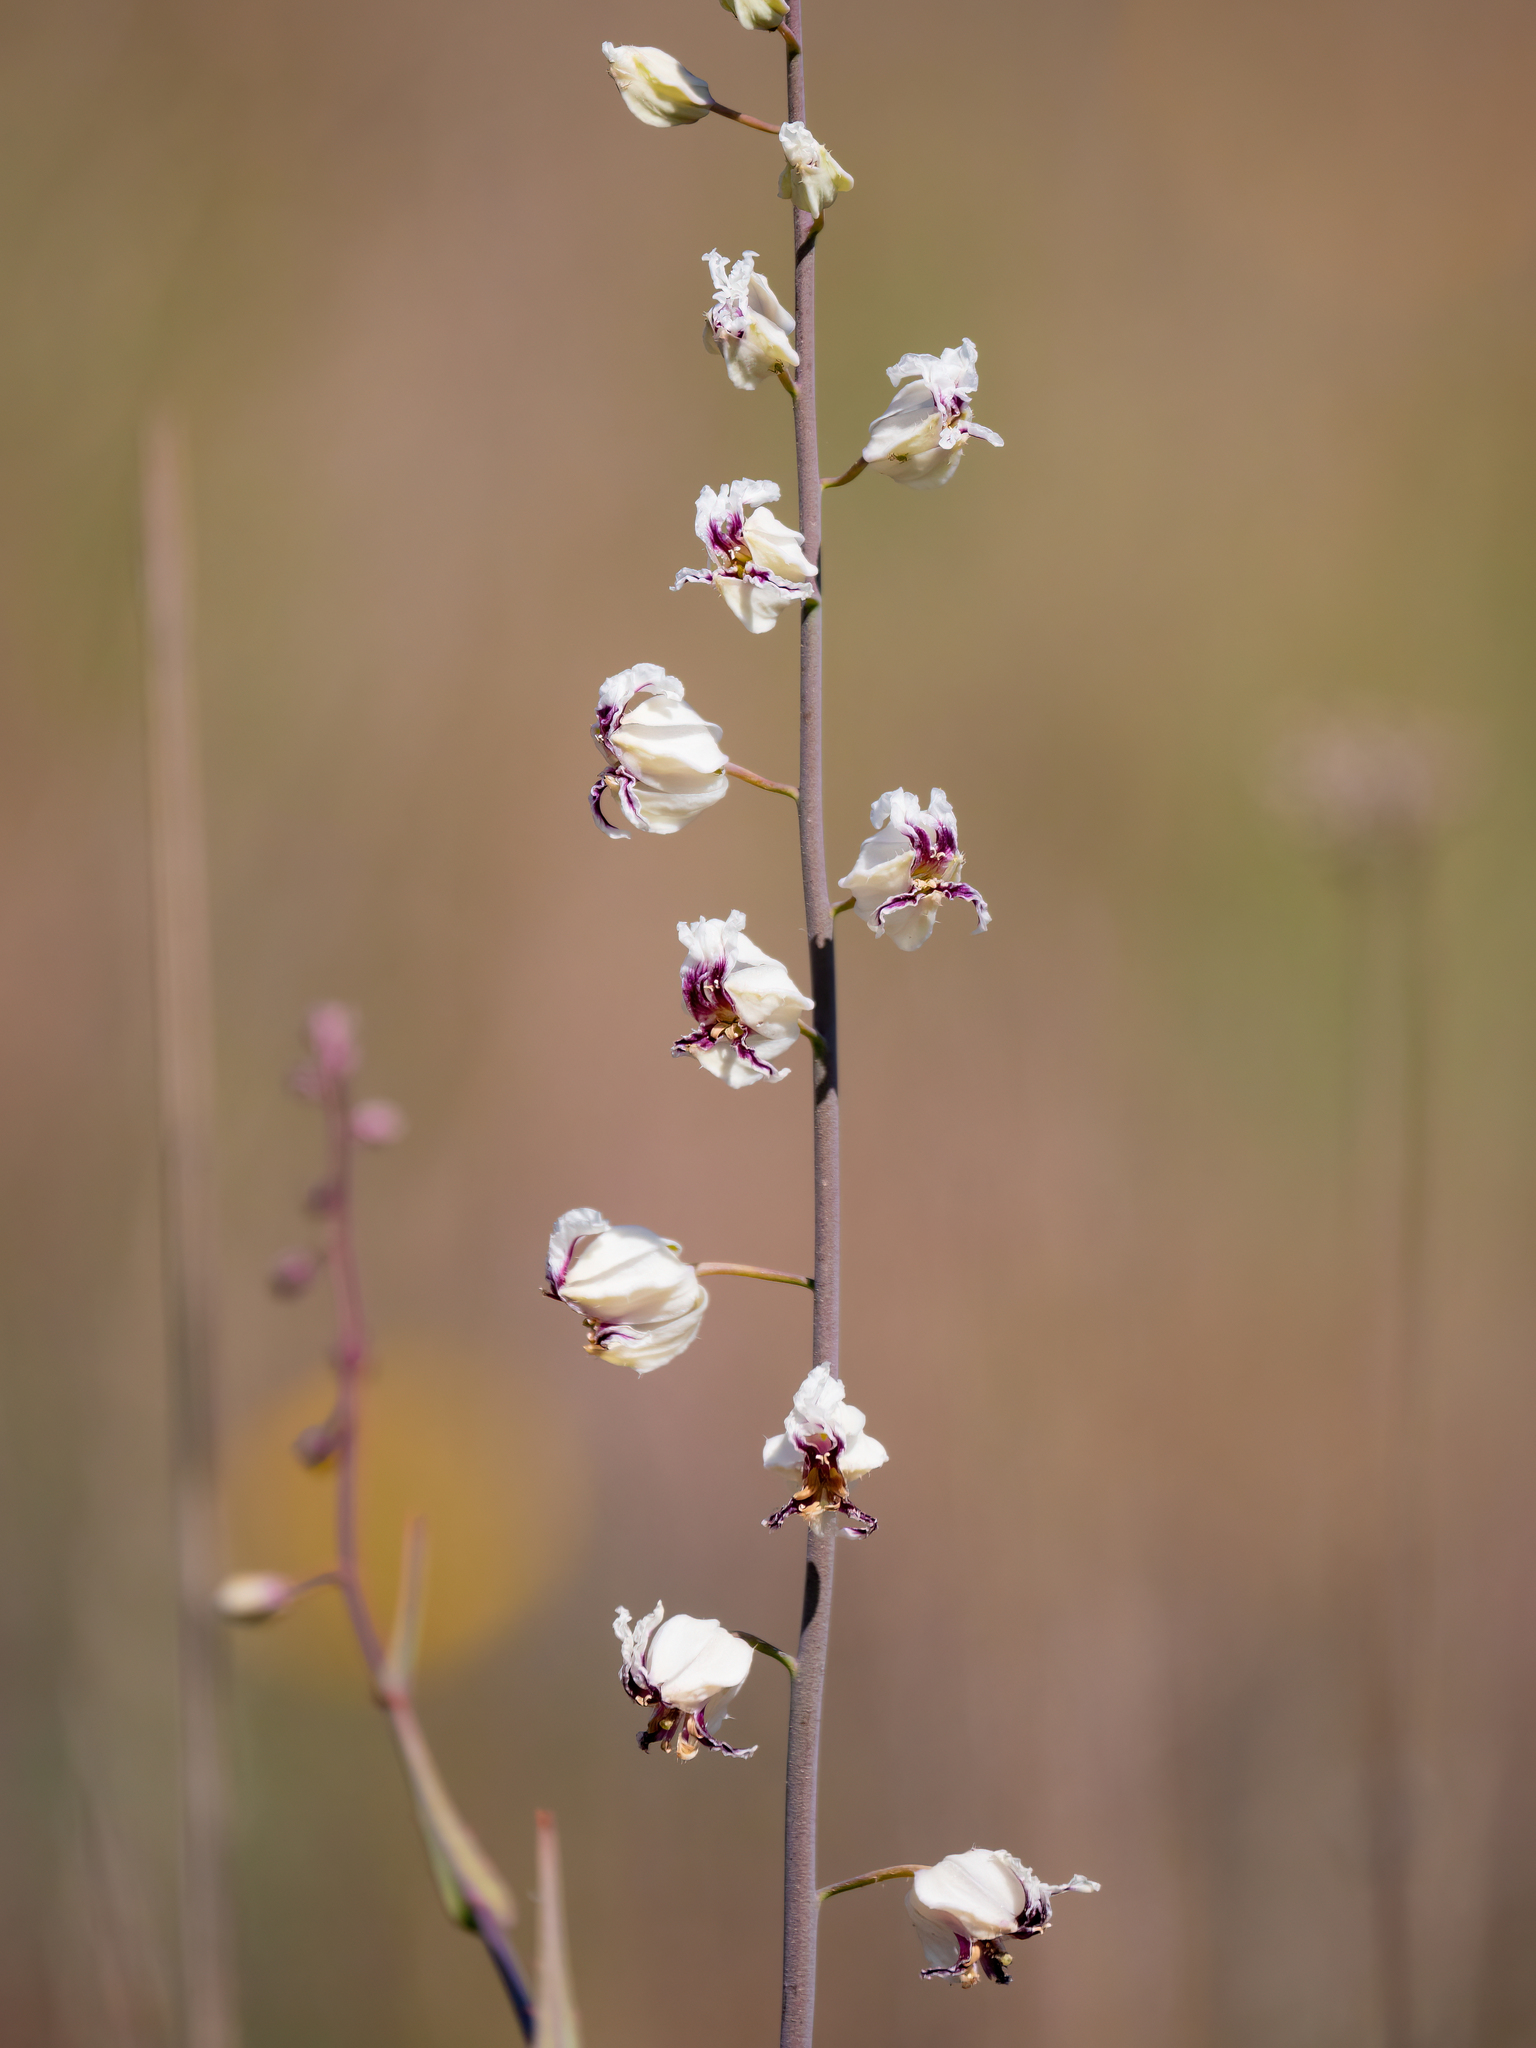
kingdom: Plantae
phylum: Tracheophyta
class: Magnoliopsida
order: Brassicales
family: Brassicaceae
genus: Streptanthus
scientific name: Streptanthus glandulosus
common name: Jewel-flower
